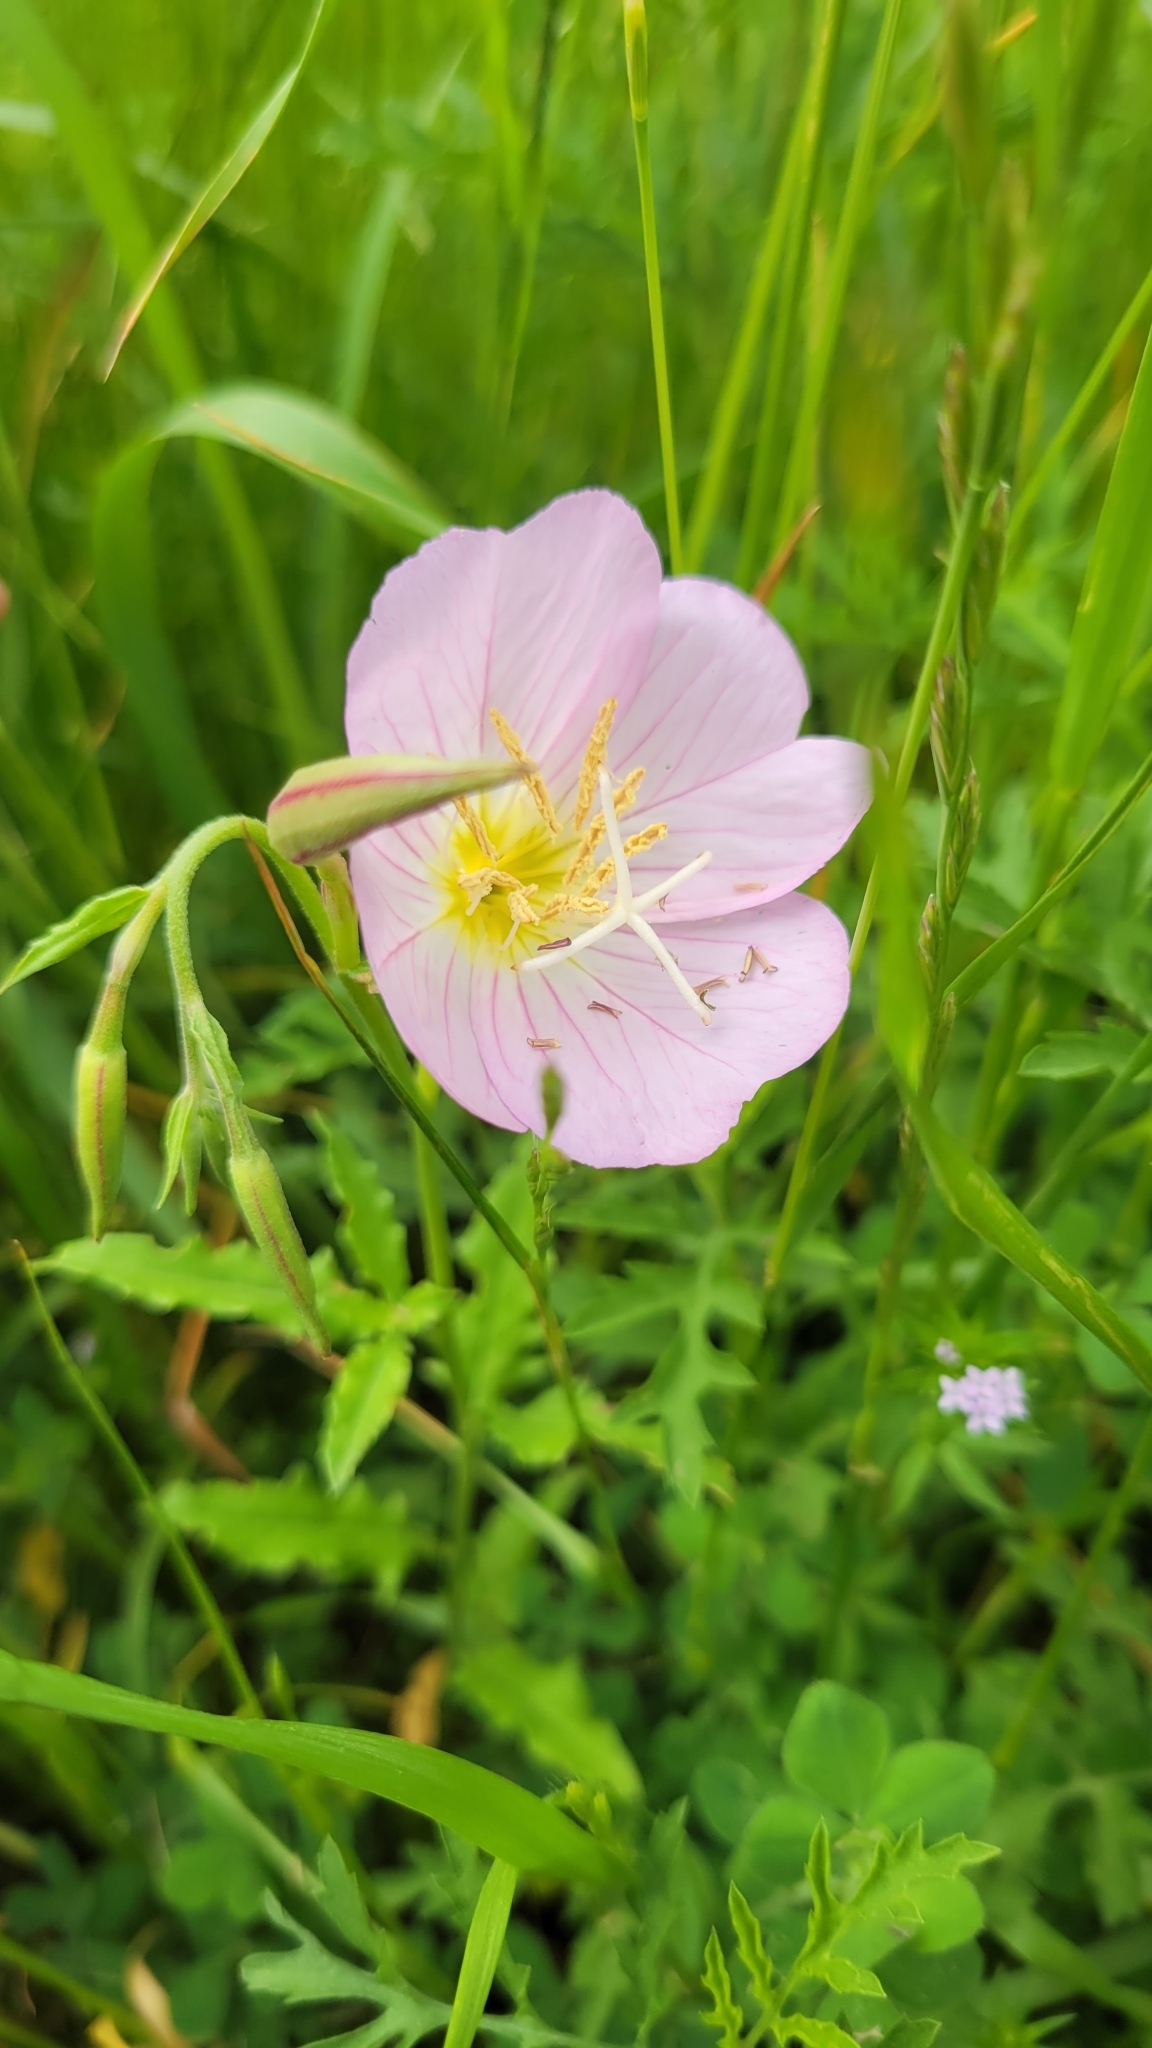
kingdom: Plantae
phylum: Tracheophyta
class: Magnoliopsida
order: Myrtales
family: Onagraceae
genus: Oenothera
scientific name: Oenothera speciosa
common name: White evening-primrose
